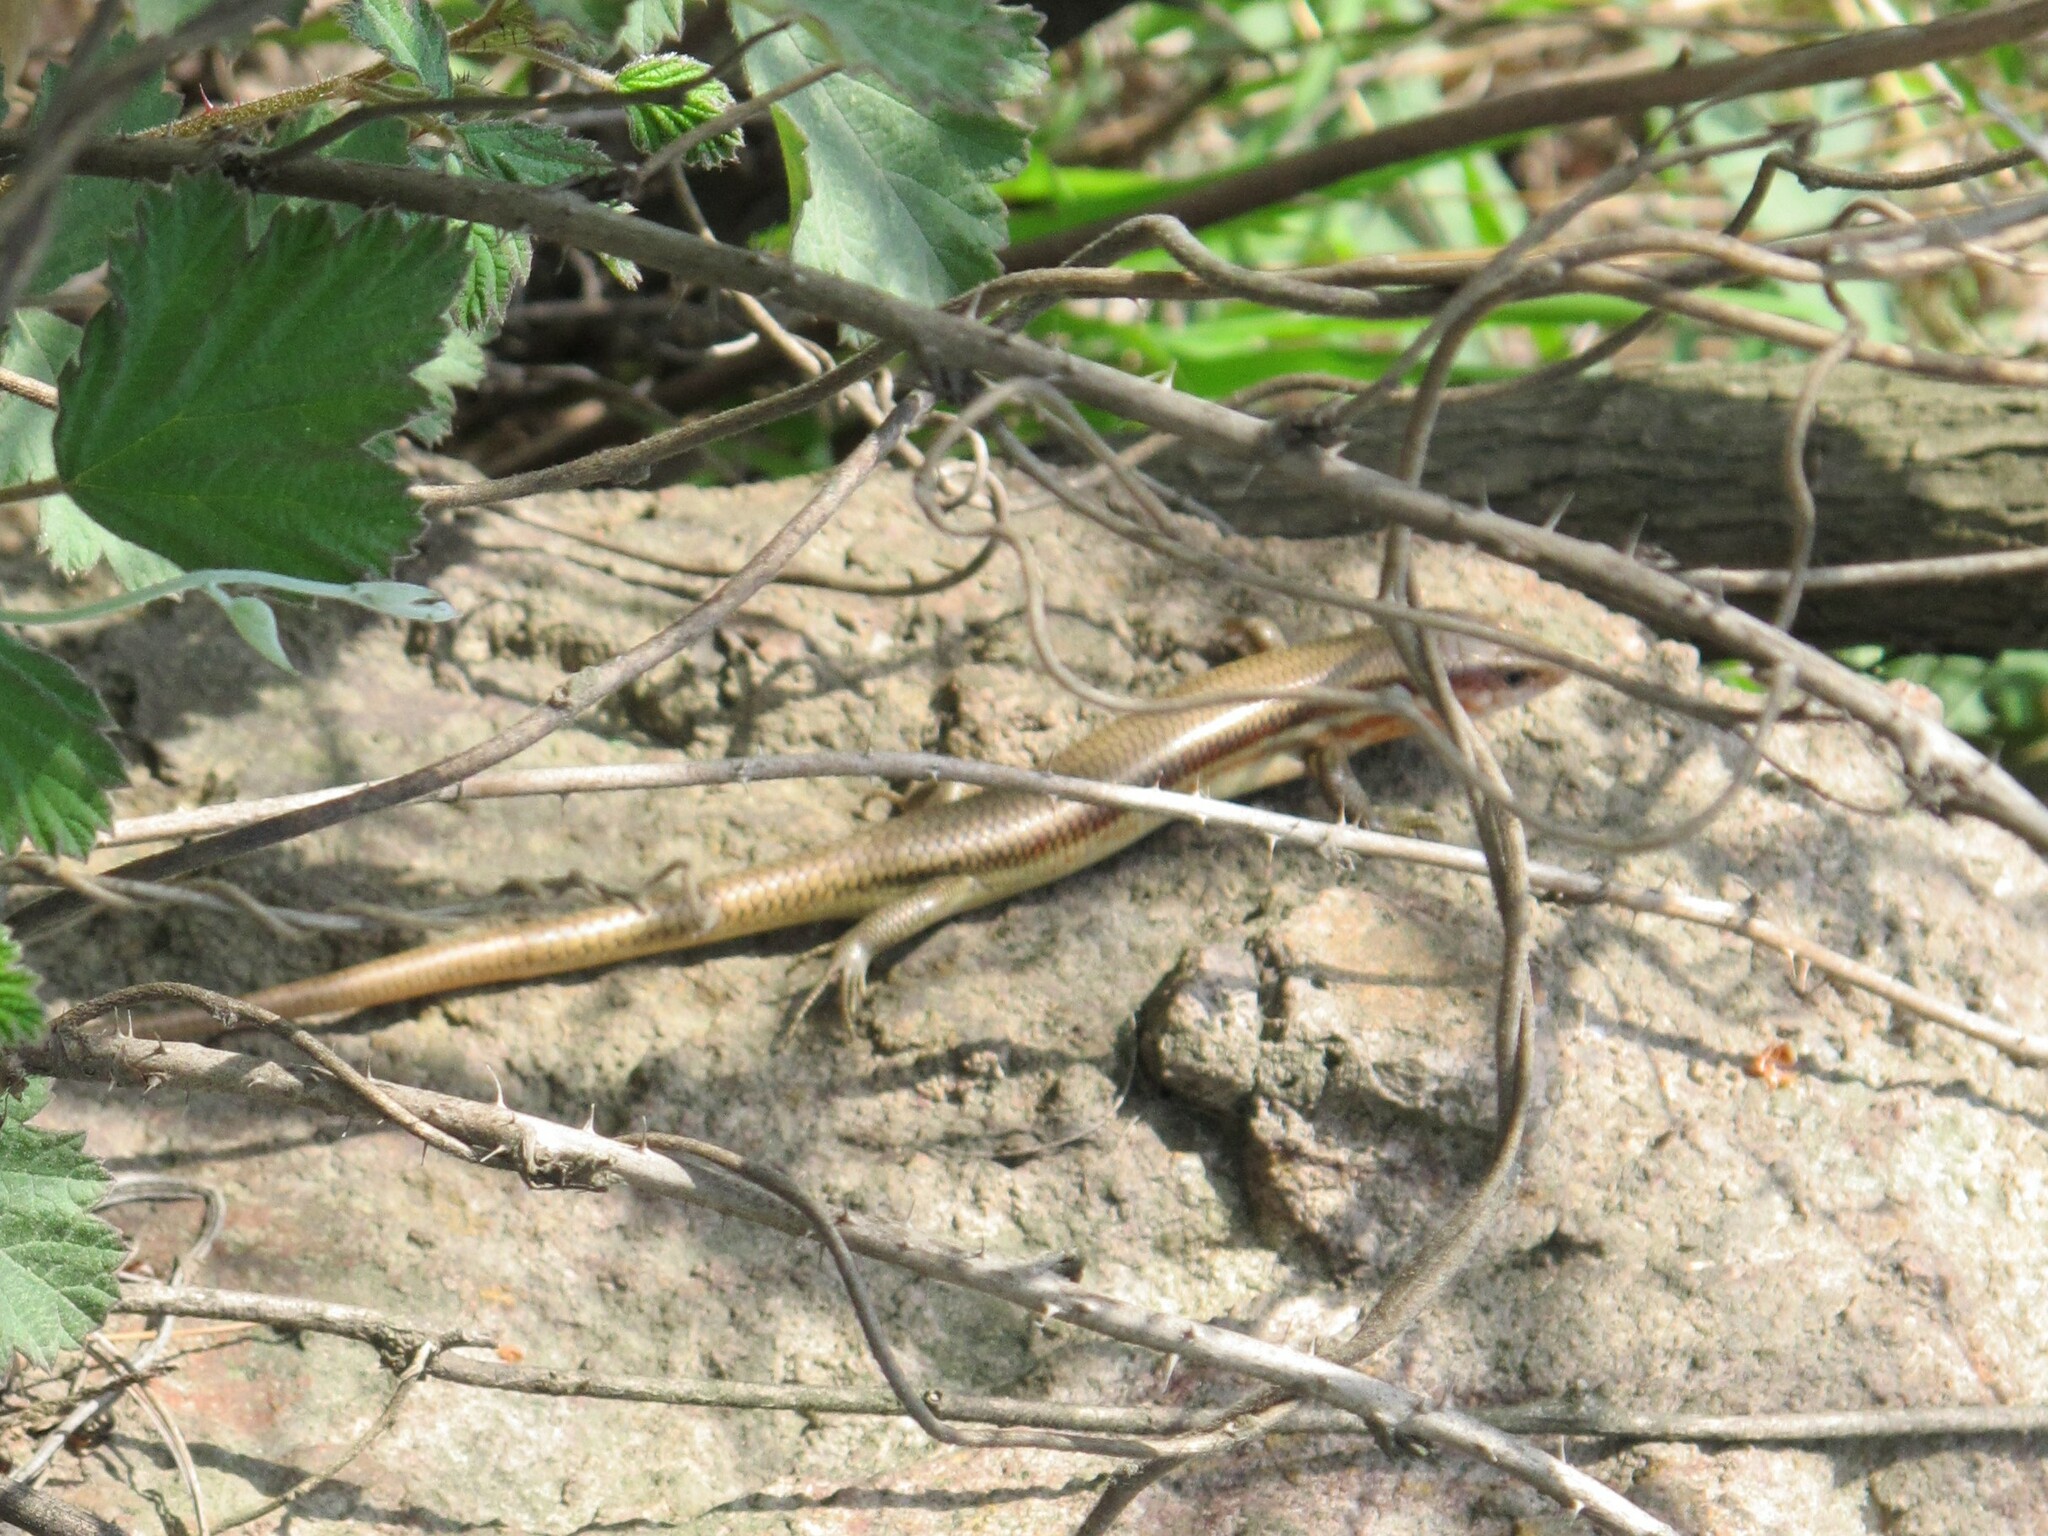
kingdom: Animalia
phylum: Chordata
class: Squamata
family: Scincidae
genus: Plestiodon
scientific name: Plestiodon elegans
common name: Shanghai elegant skink
